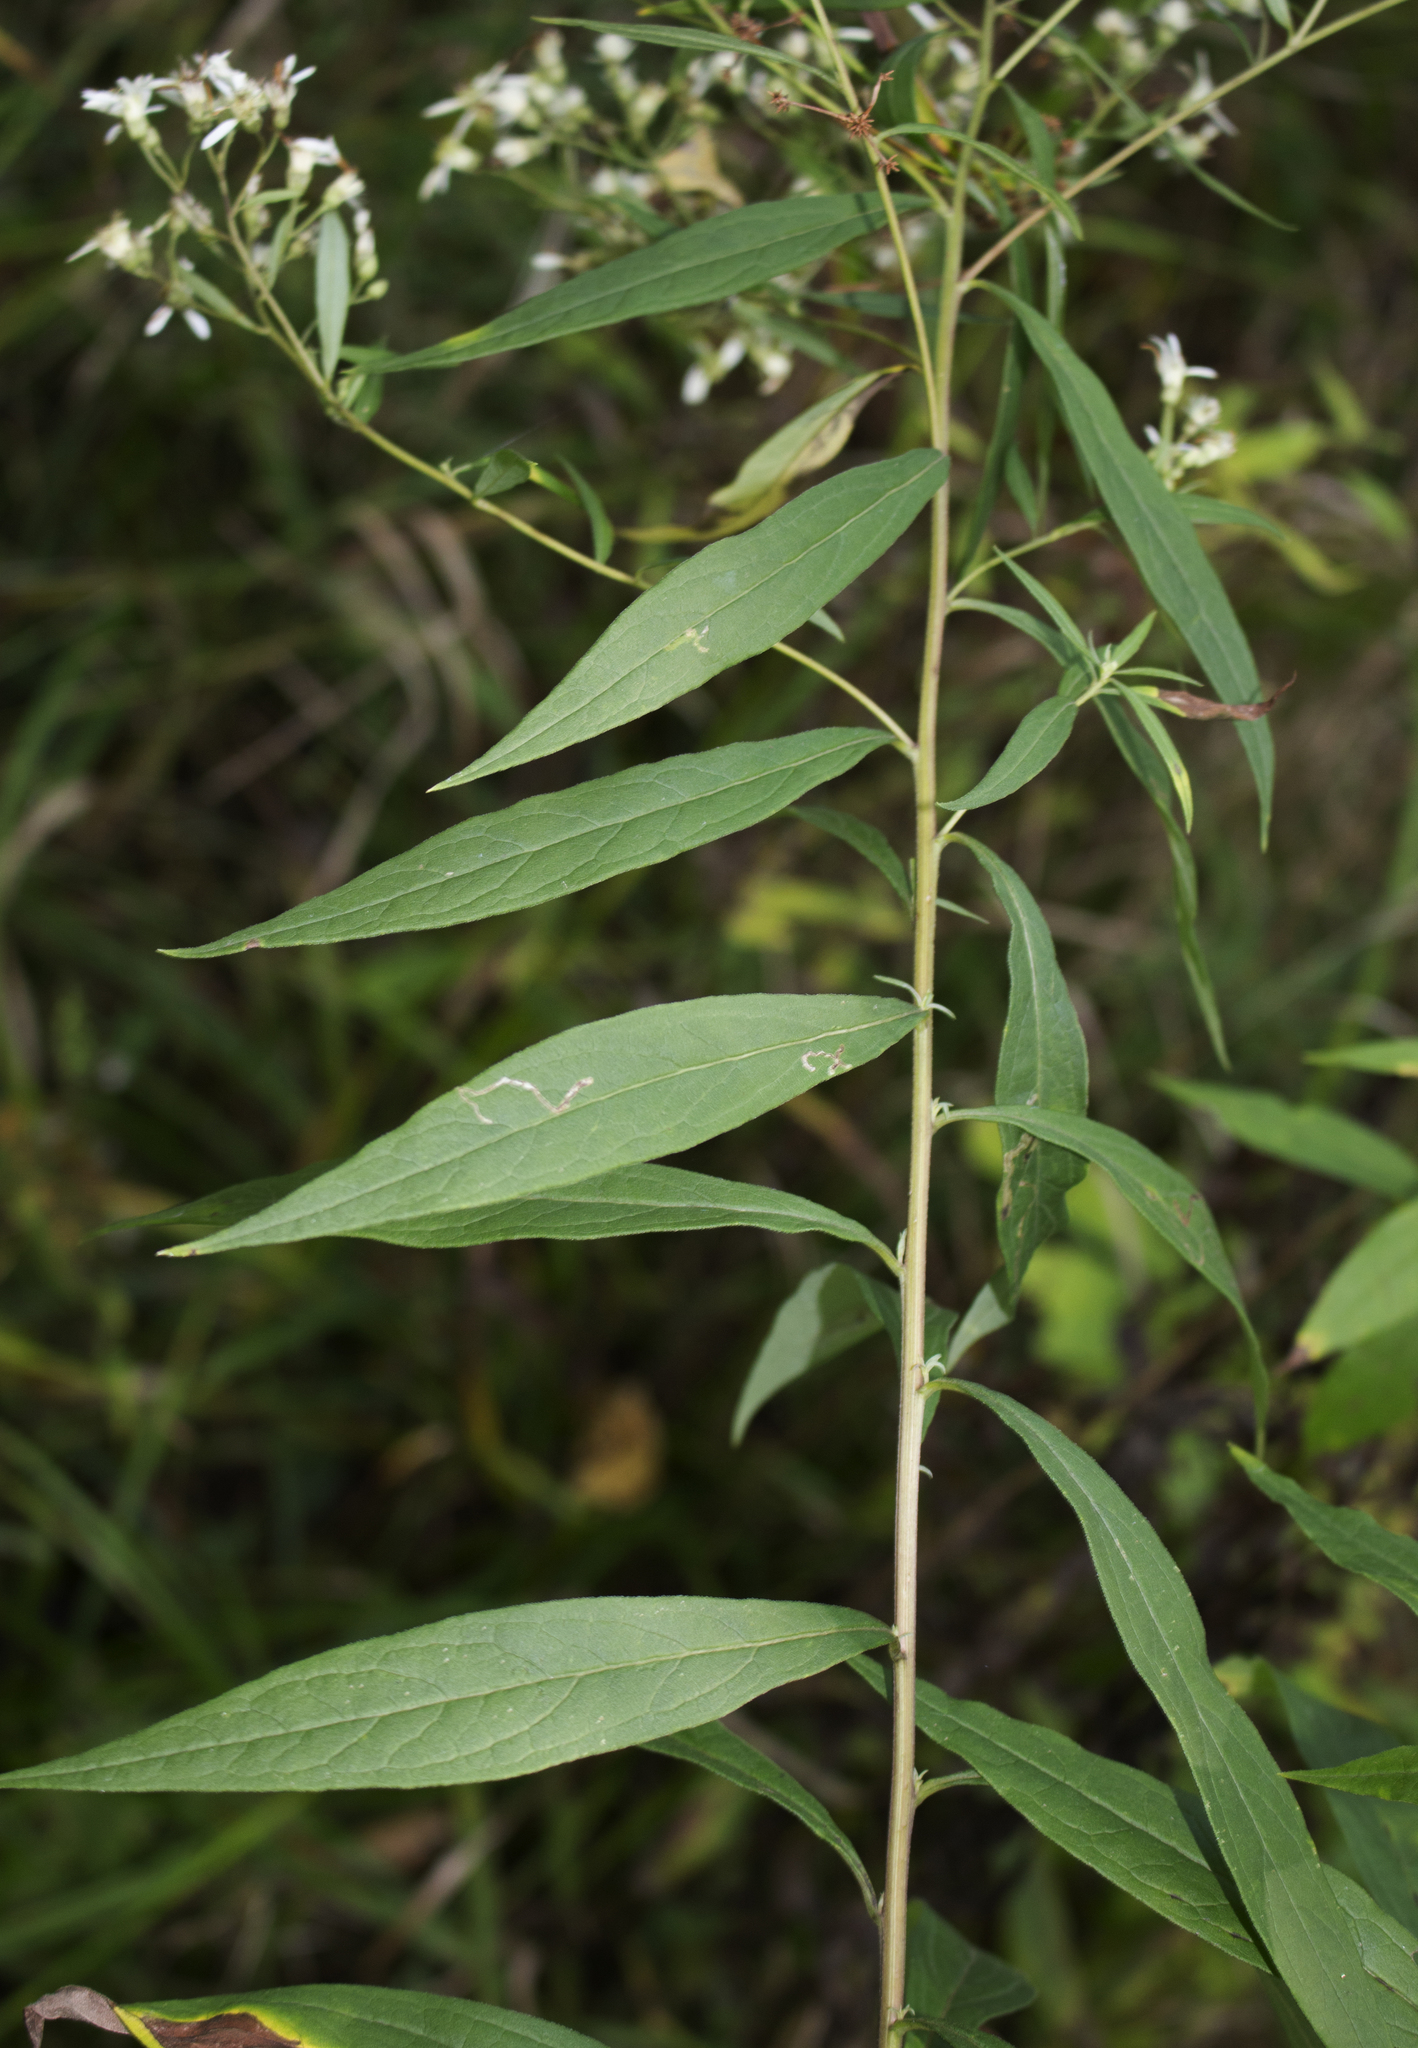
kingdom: Plantae
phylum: Tracheophyta
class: Magnoliopsida
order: Asterales
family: Asteraceae
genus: Doellingeria
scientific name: Doellingeria umbellata
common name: Flat-top white aster
